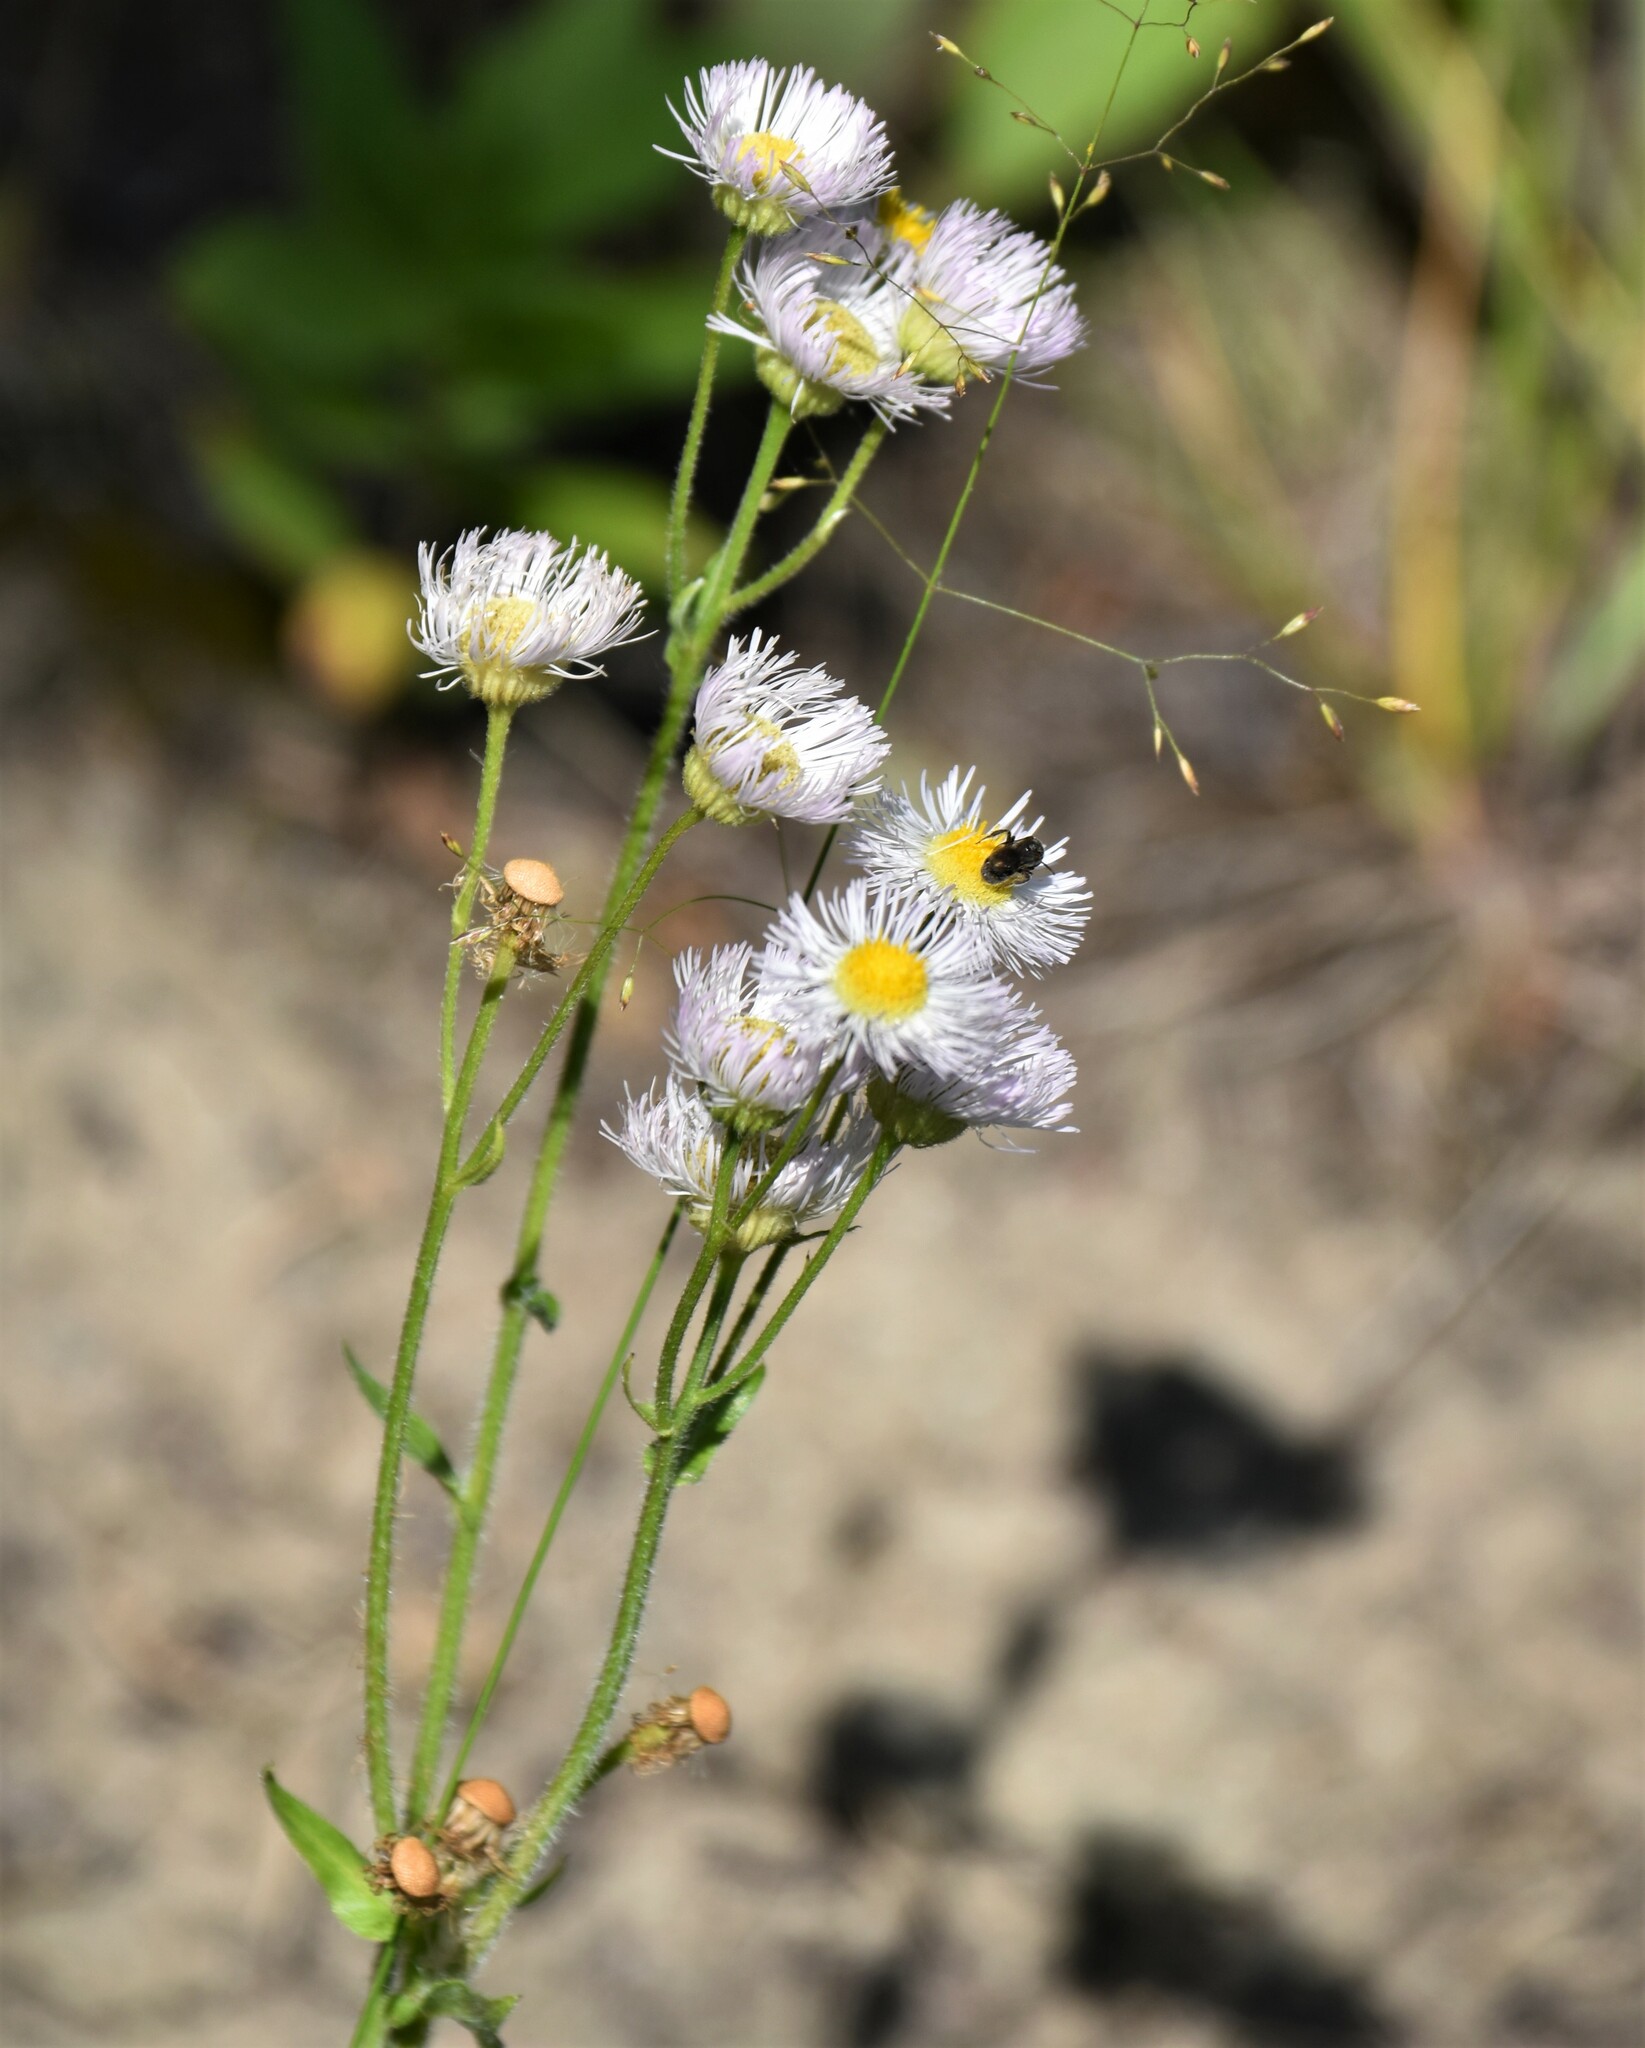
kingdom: Plantae
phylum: Tracheophyta
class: Magnoliopsida
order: Asterales
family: Asteraceae
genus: Erigeron
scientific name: Erigeron philadelphicus
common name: Robin's-plantain
